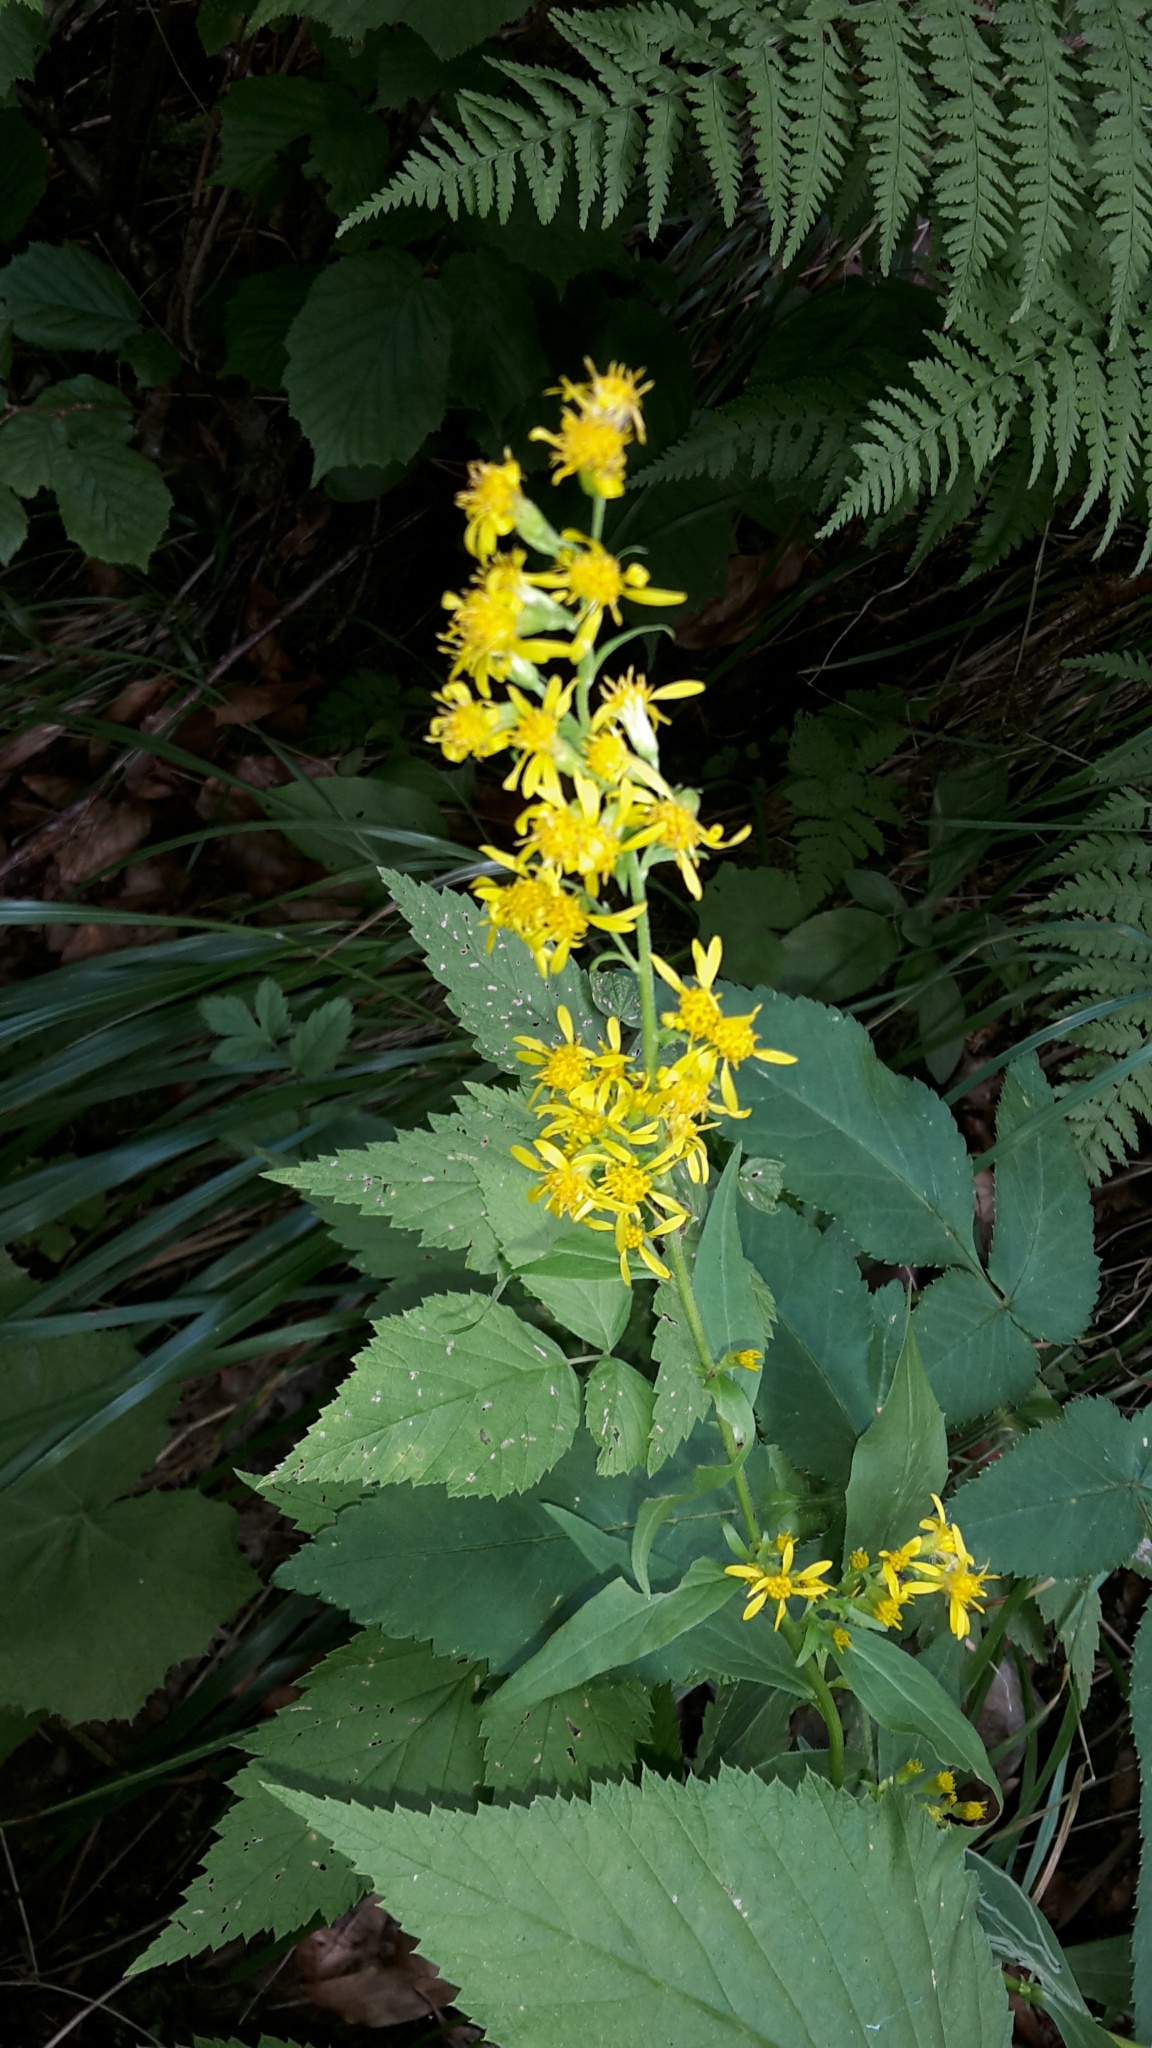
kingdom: Plantae
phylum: Tracheophyta
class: Magnoliopsida
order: Asterales
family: Asteraceae
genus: Solidago
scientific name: Solidago virgaurea
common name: Goldenrod
